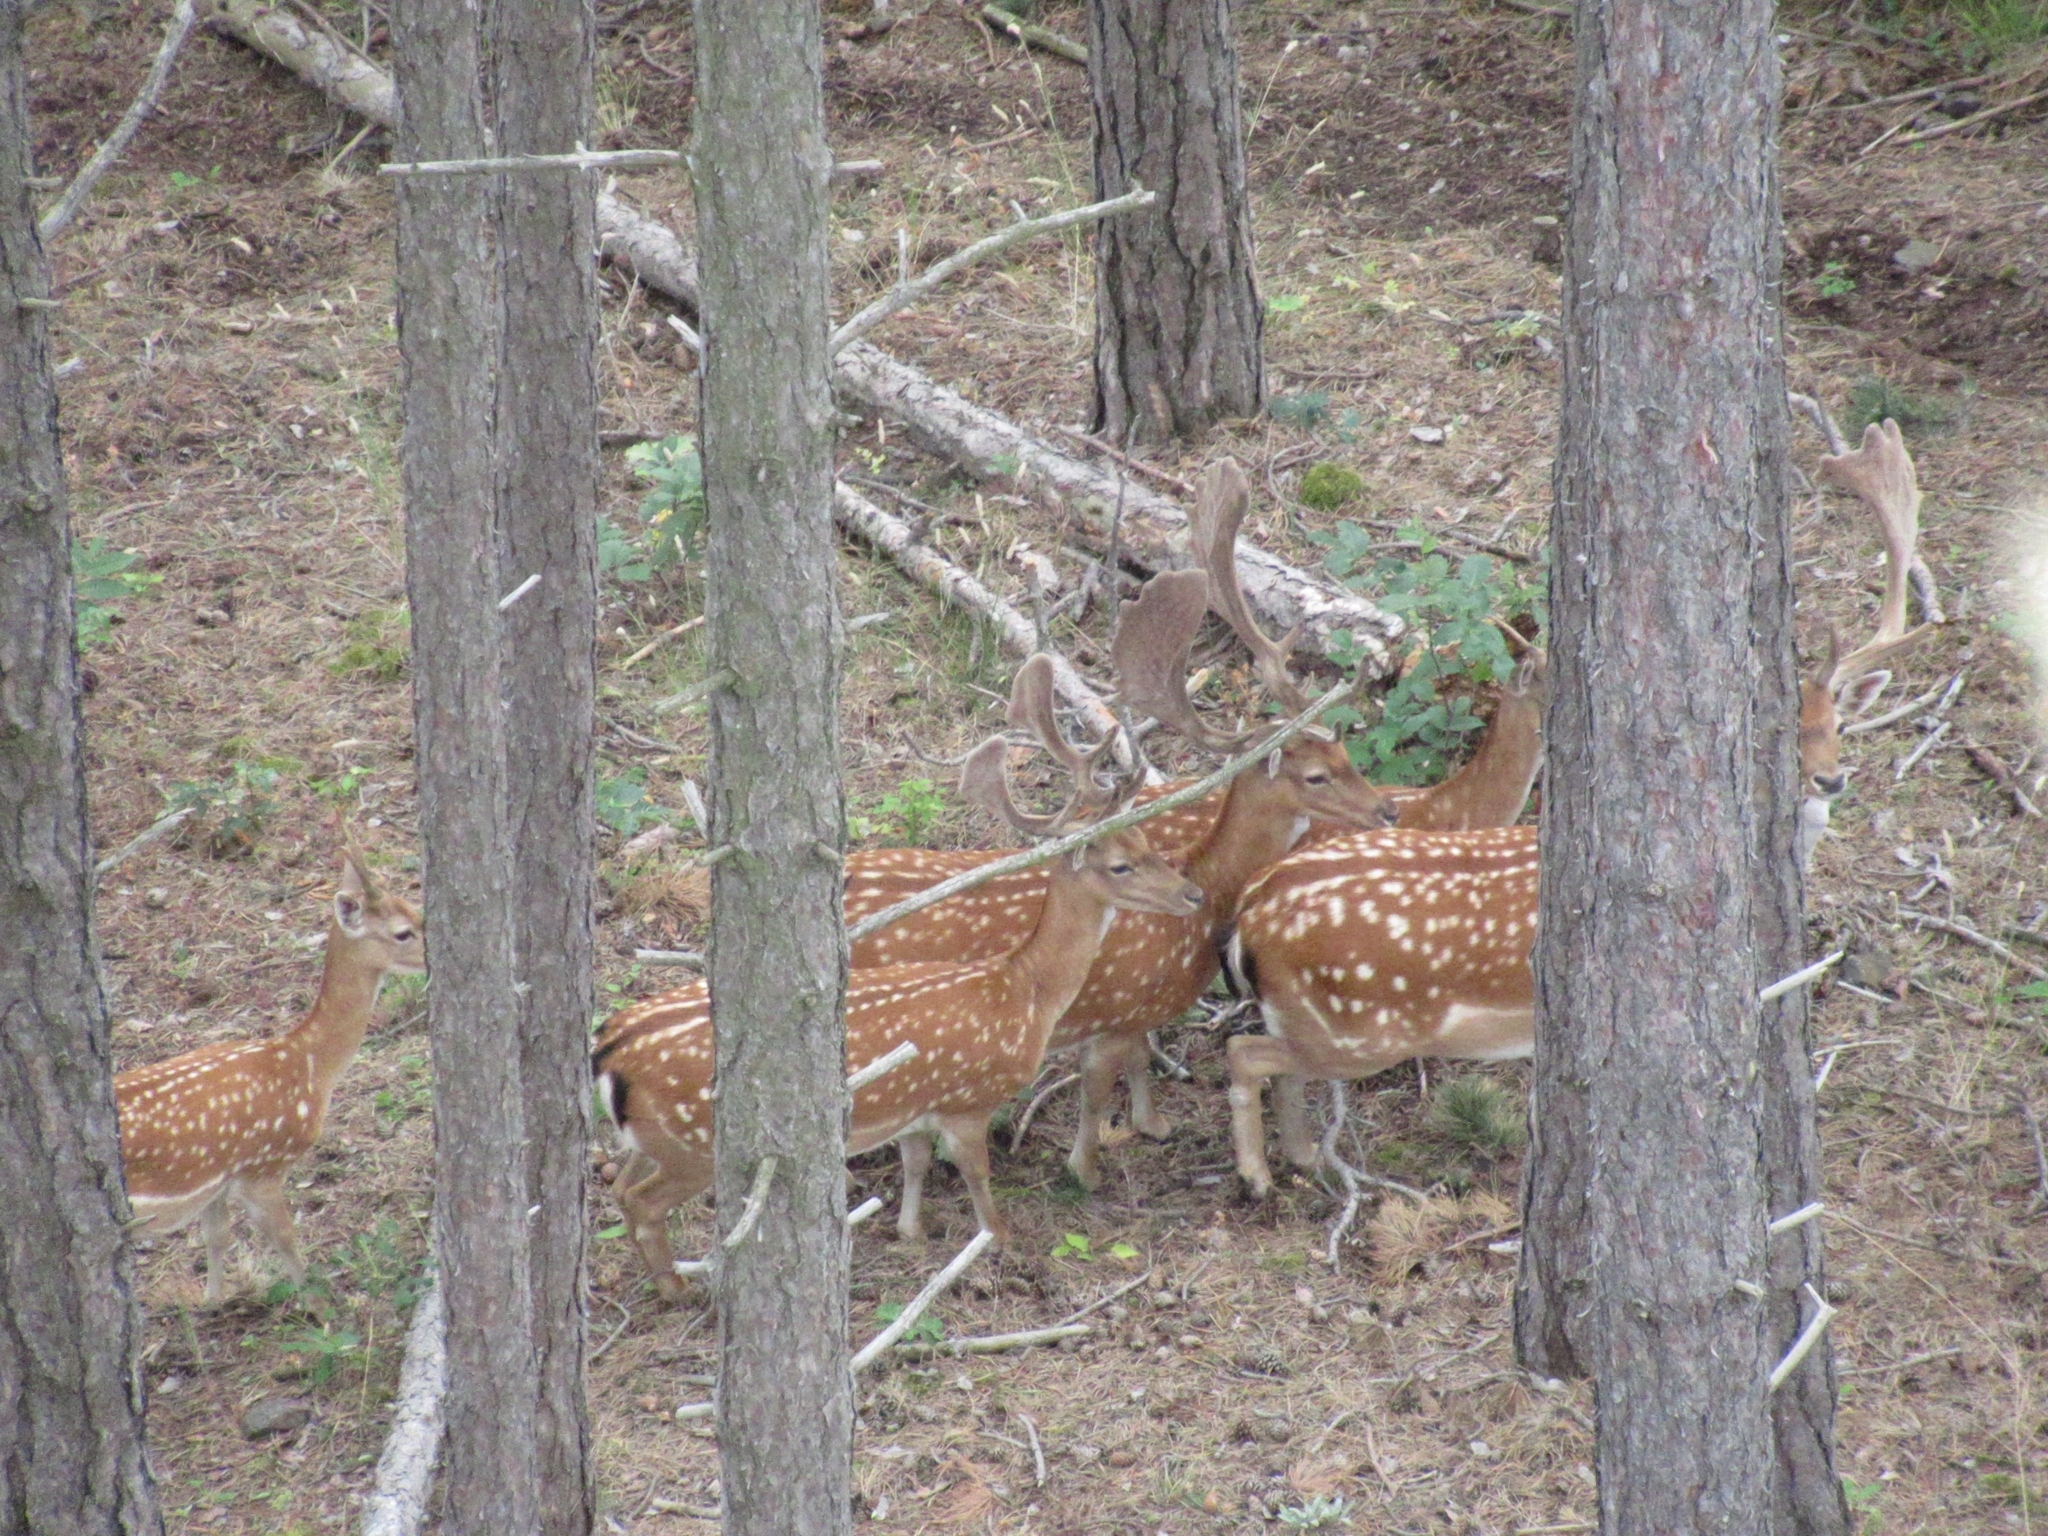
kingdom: Animalia
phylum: Chordata
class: Mammalia
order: Artiodactyla
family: Cervidae
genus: Dama
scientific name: Dama dama
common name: Fallow deer
